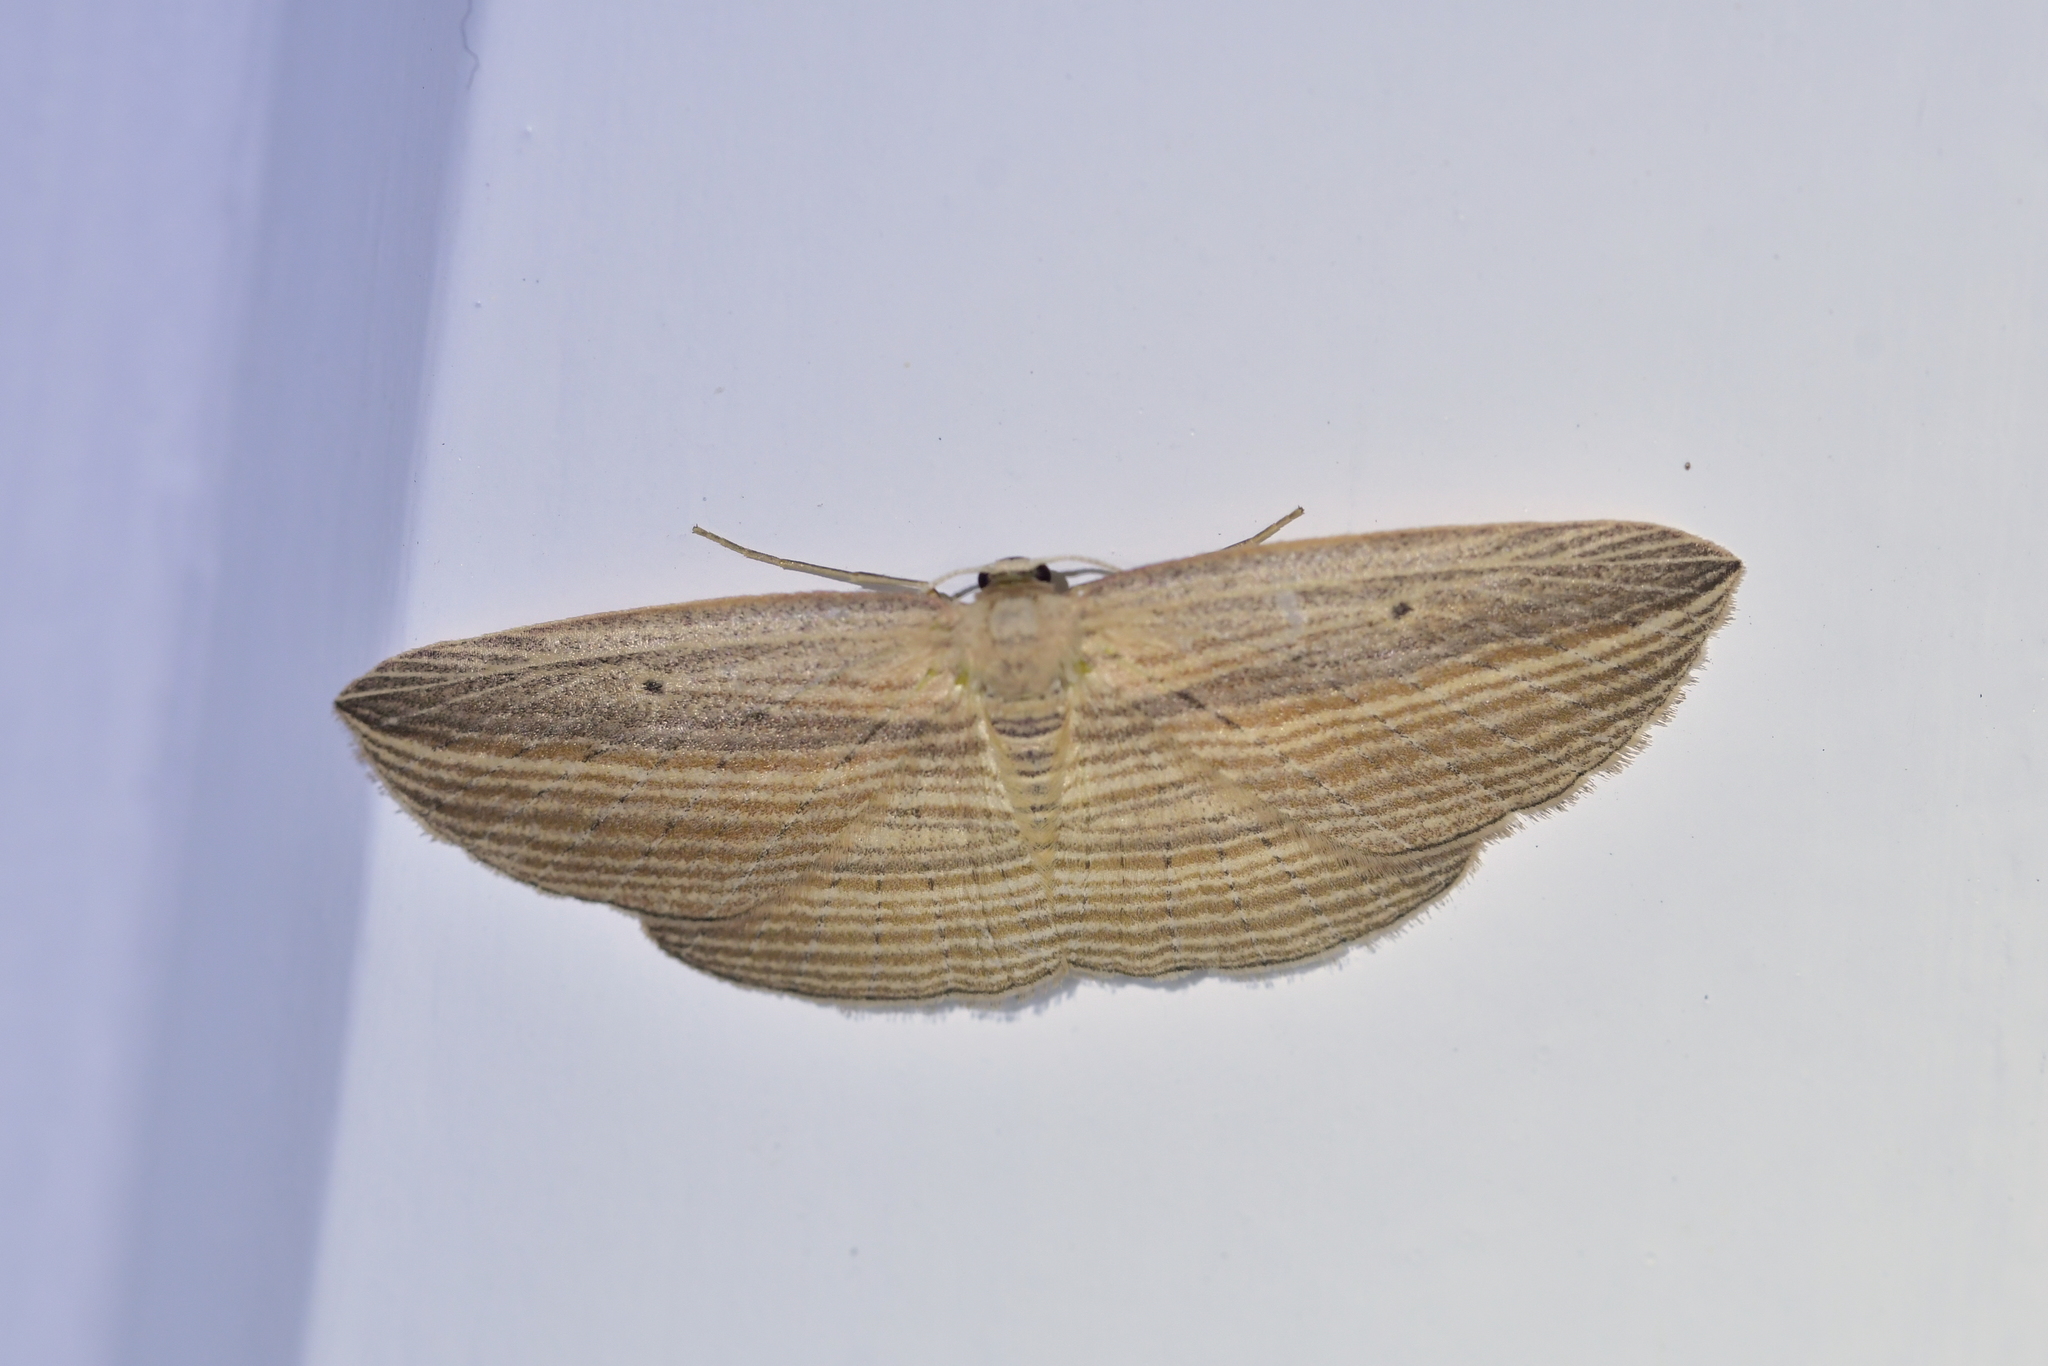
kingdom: Animalia
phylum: Arthropoda
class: Insecta
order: Lepidoptera
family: Geometridae
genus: Epiphryne
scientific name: Epiphryne verriculata
